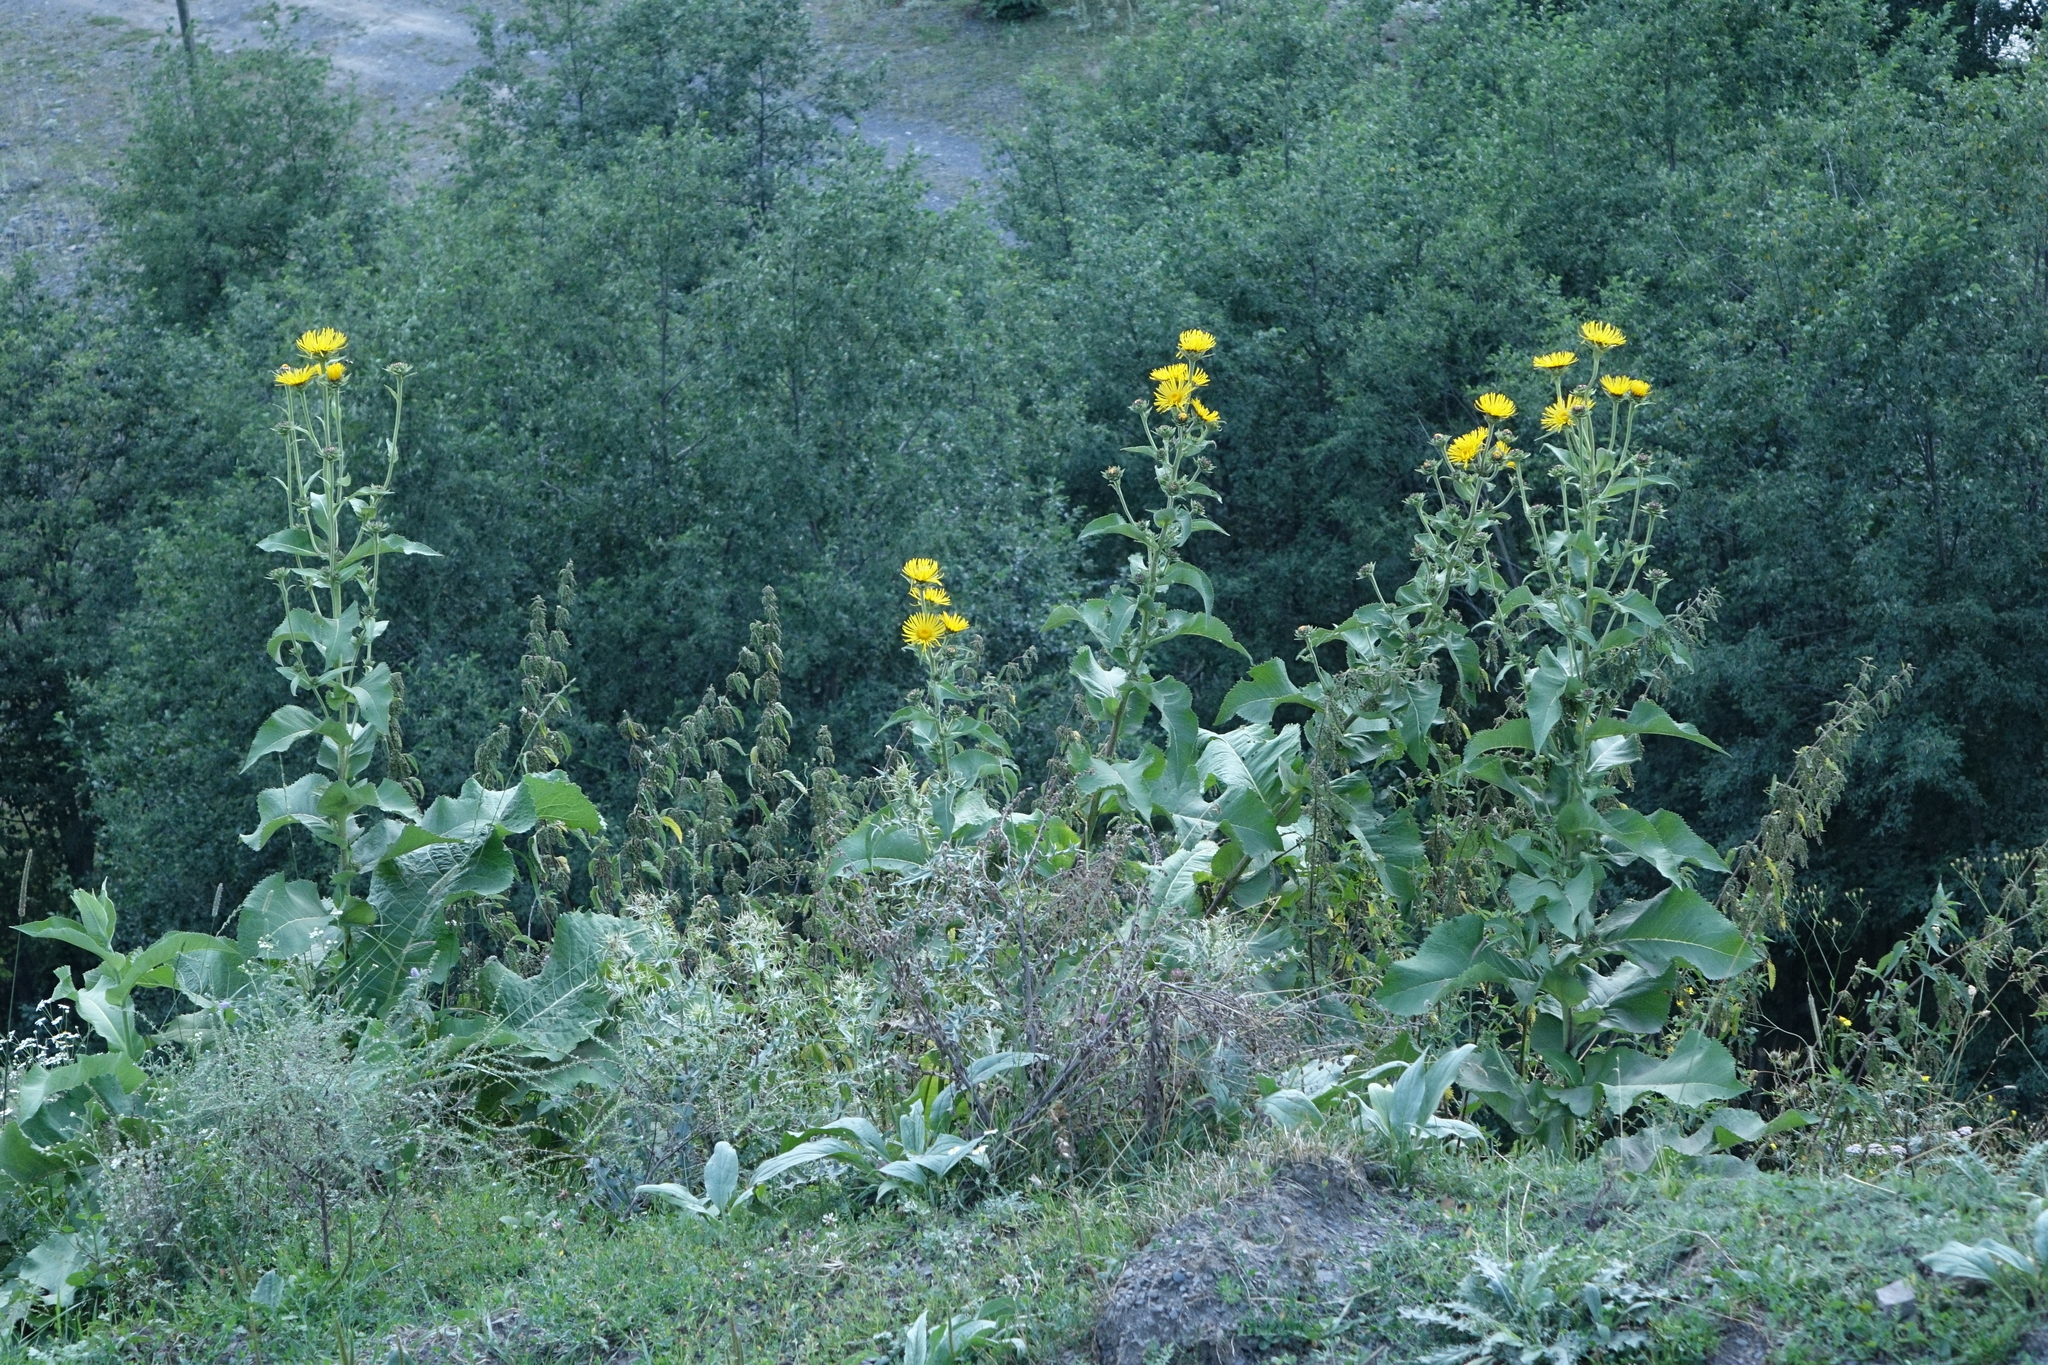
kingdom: Plantae
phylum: Tracheophyta
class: Magnoliopsida
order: Asterales
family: Asteraceae
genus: Inula
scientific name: Inula helenium
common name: Elecampane
